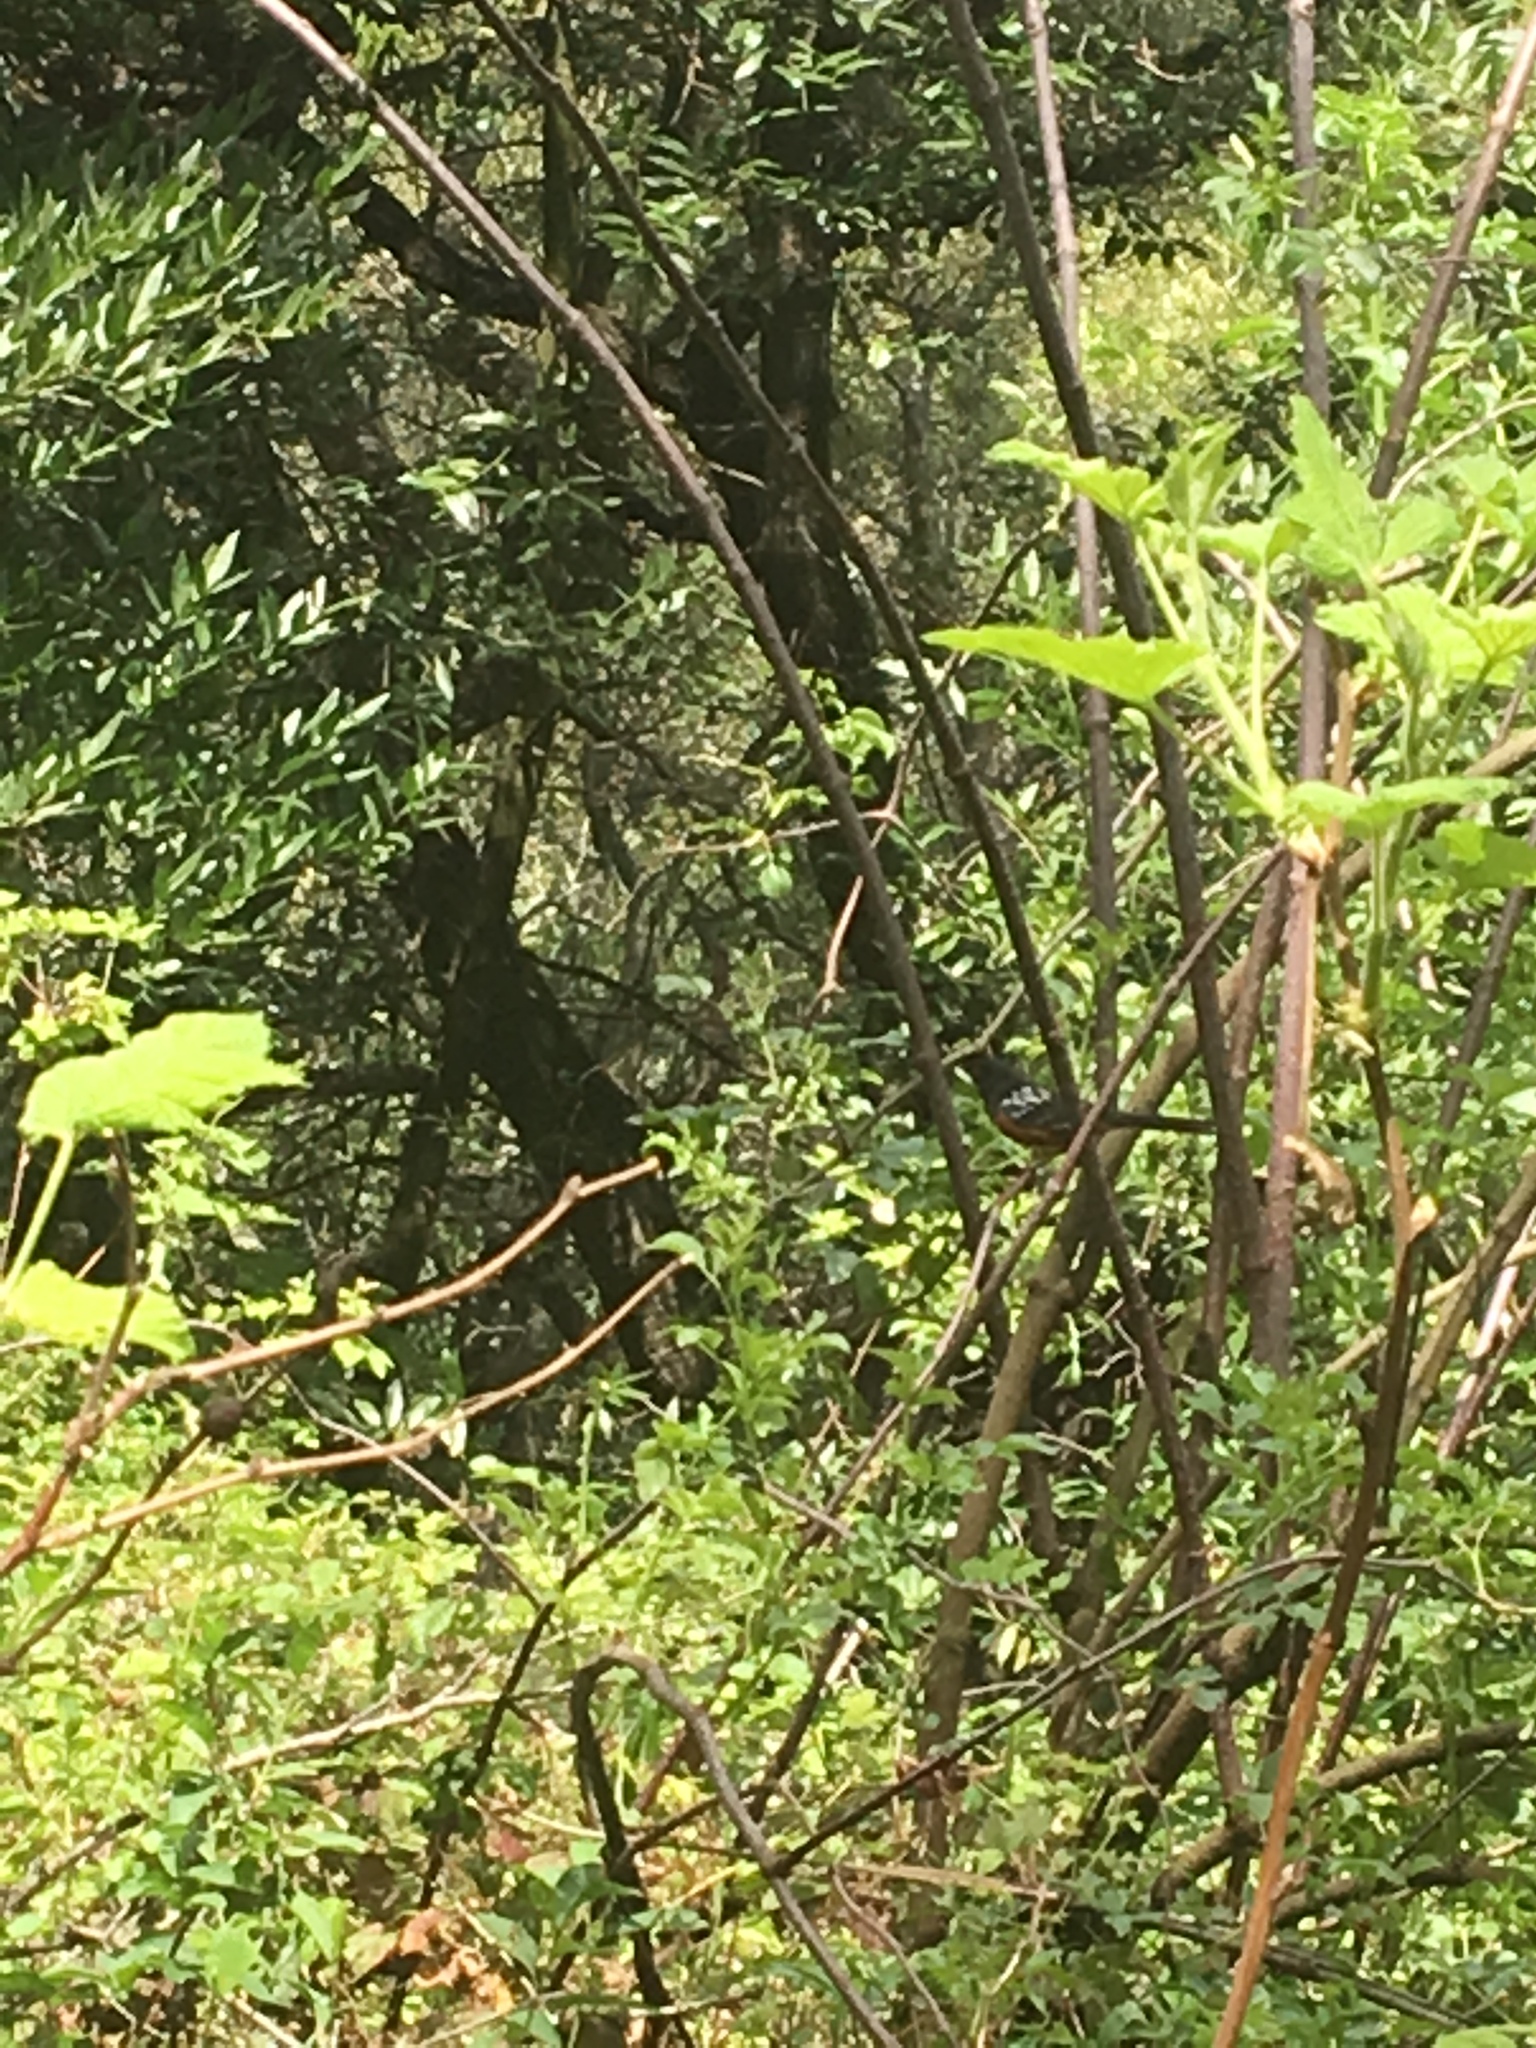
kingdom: Animalia
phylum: Chordata
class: Aves
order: Passeriformes
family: Passerellidae
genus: Pipilo
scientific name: Pipilo maculatus
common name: Spotted towhee
